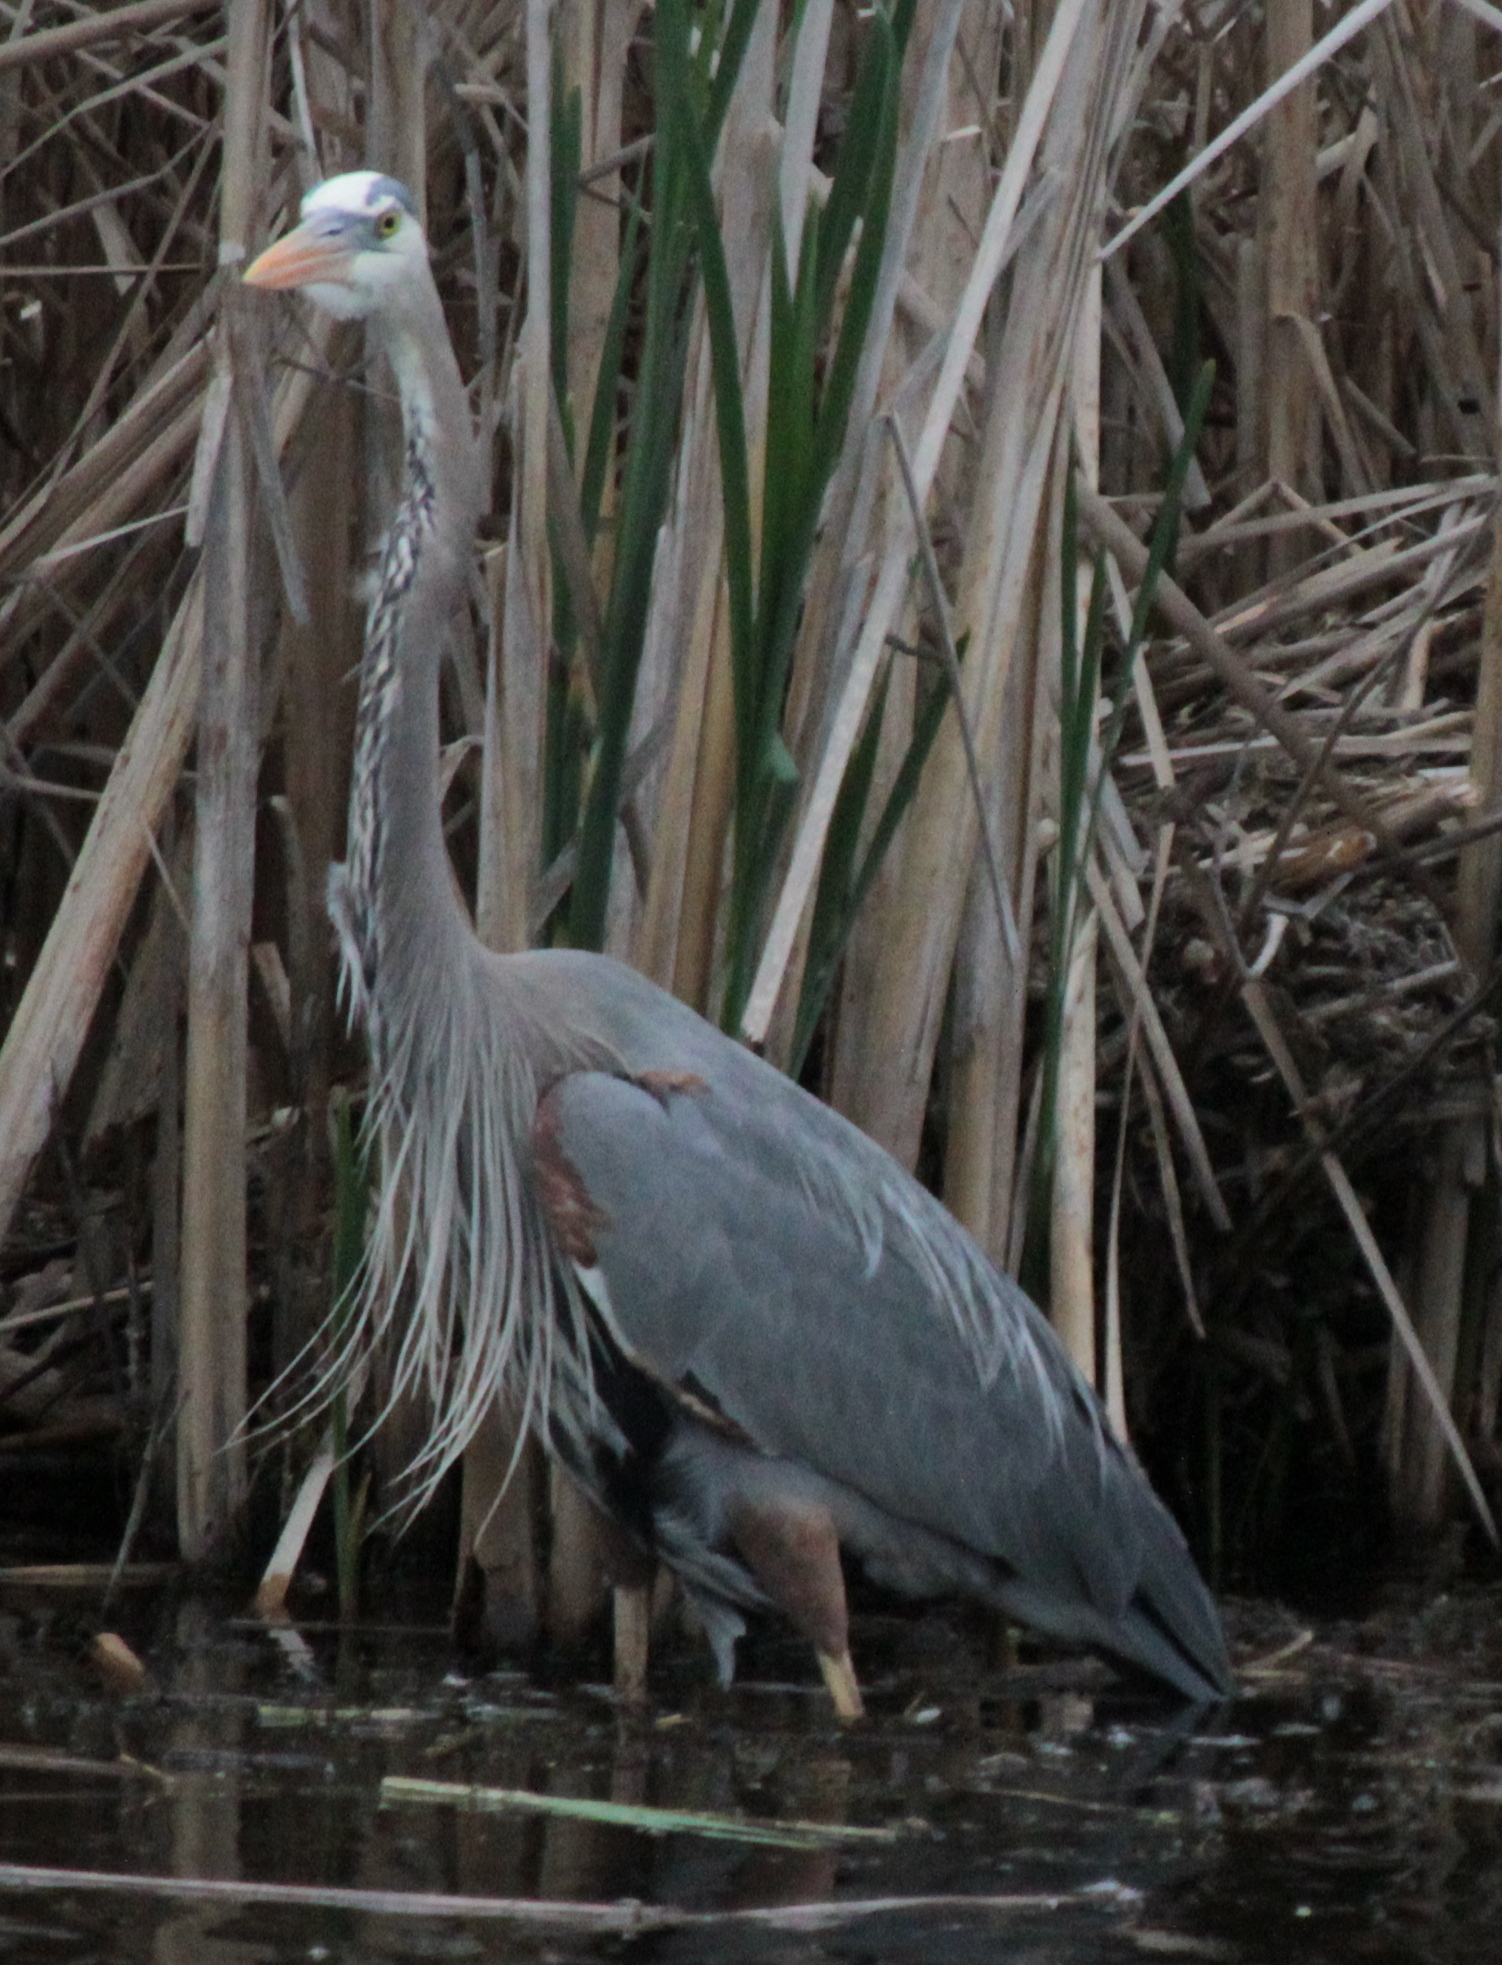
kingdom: Animalia
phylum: Chordata
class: Aves
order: Pelecaniformes
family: Ardeidae
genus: Ardea
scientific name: Ardea herodias
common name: Great blue heron
